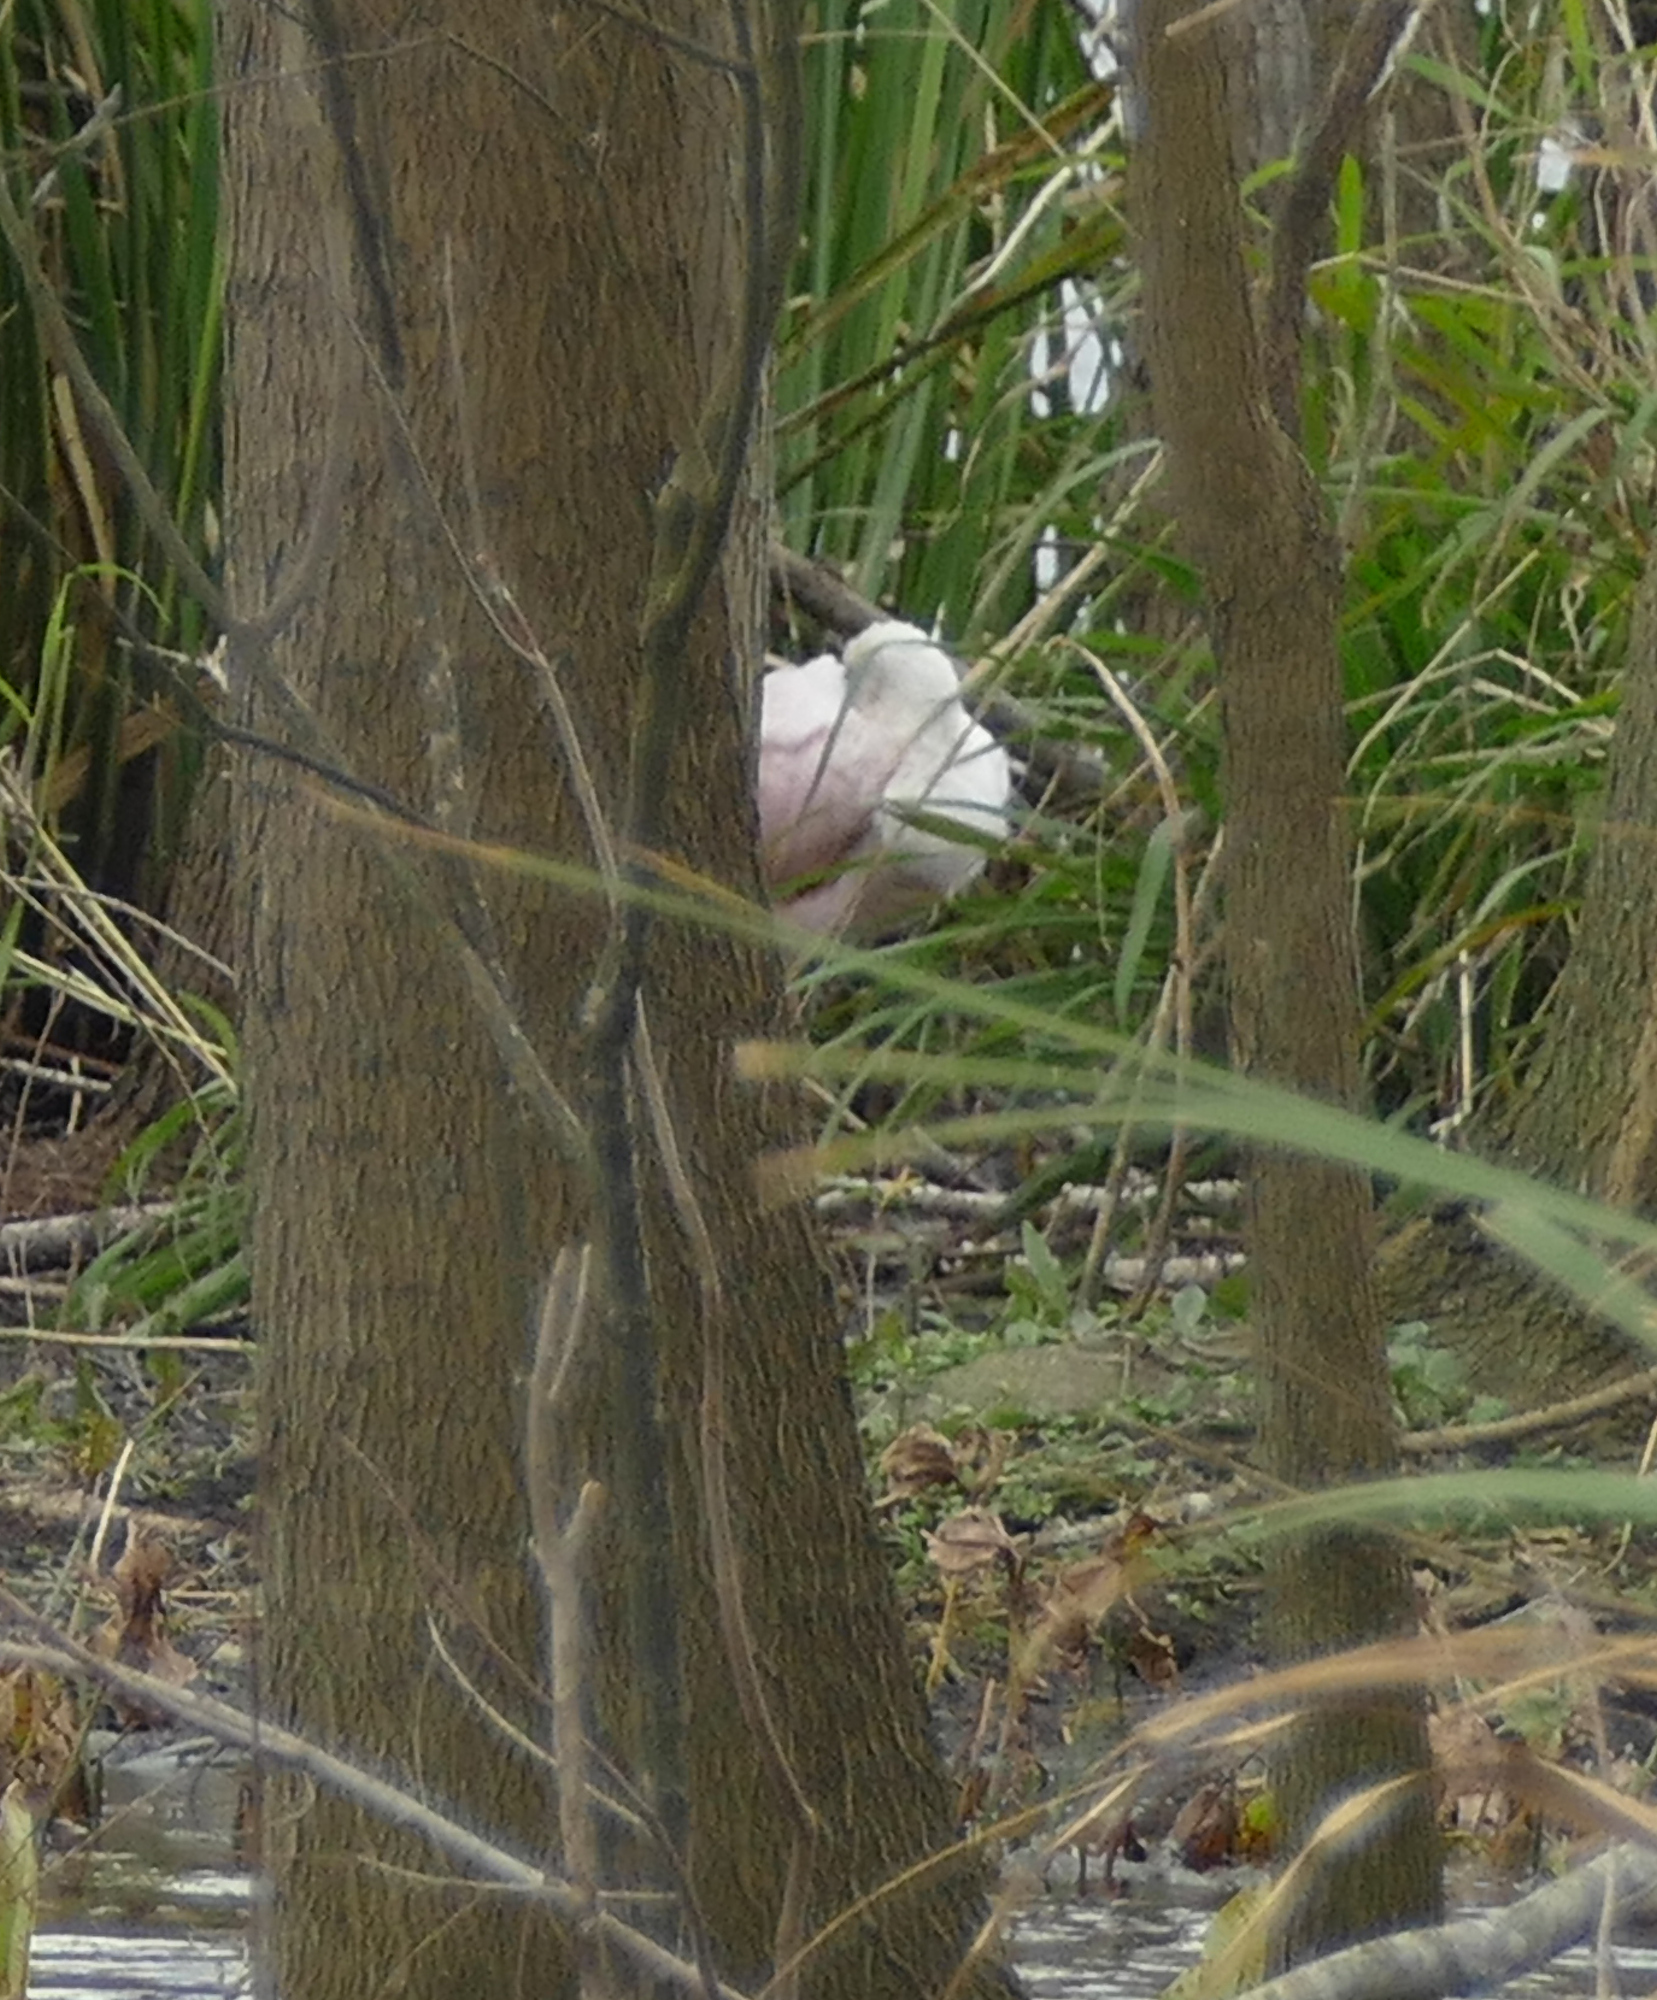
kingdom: Animalia
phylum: Chordata
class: Aves
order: Pelecaniformes
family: Threskiornithidae
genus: Platalea
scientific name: Platalea ajaja
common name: Roseate spoonbill
